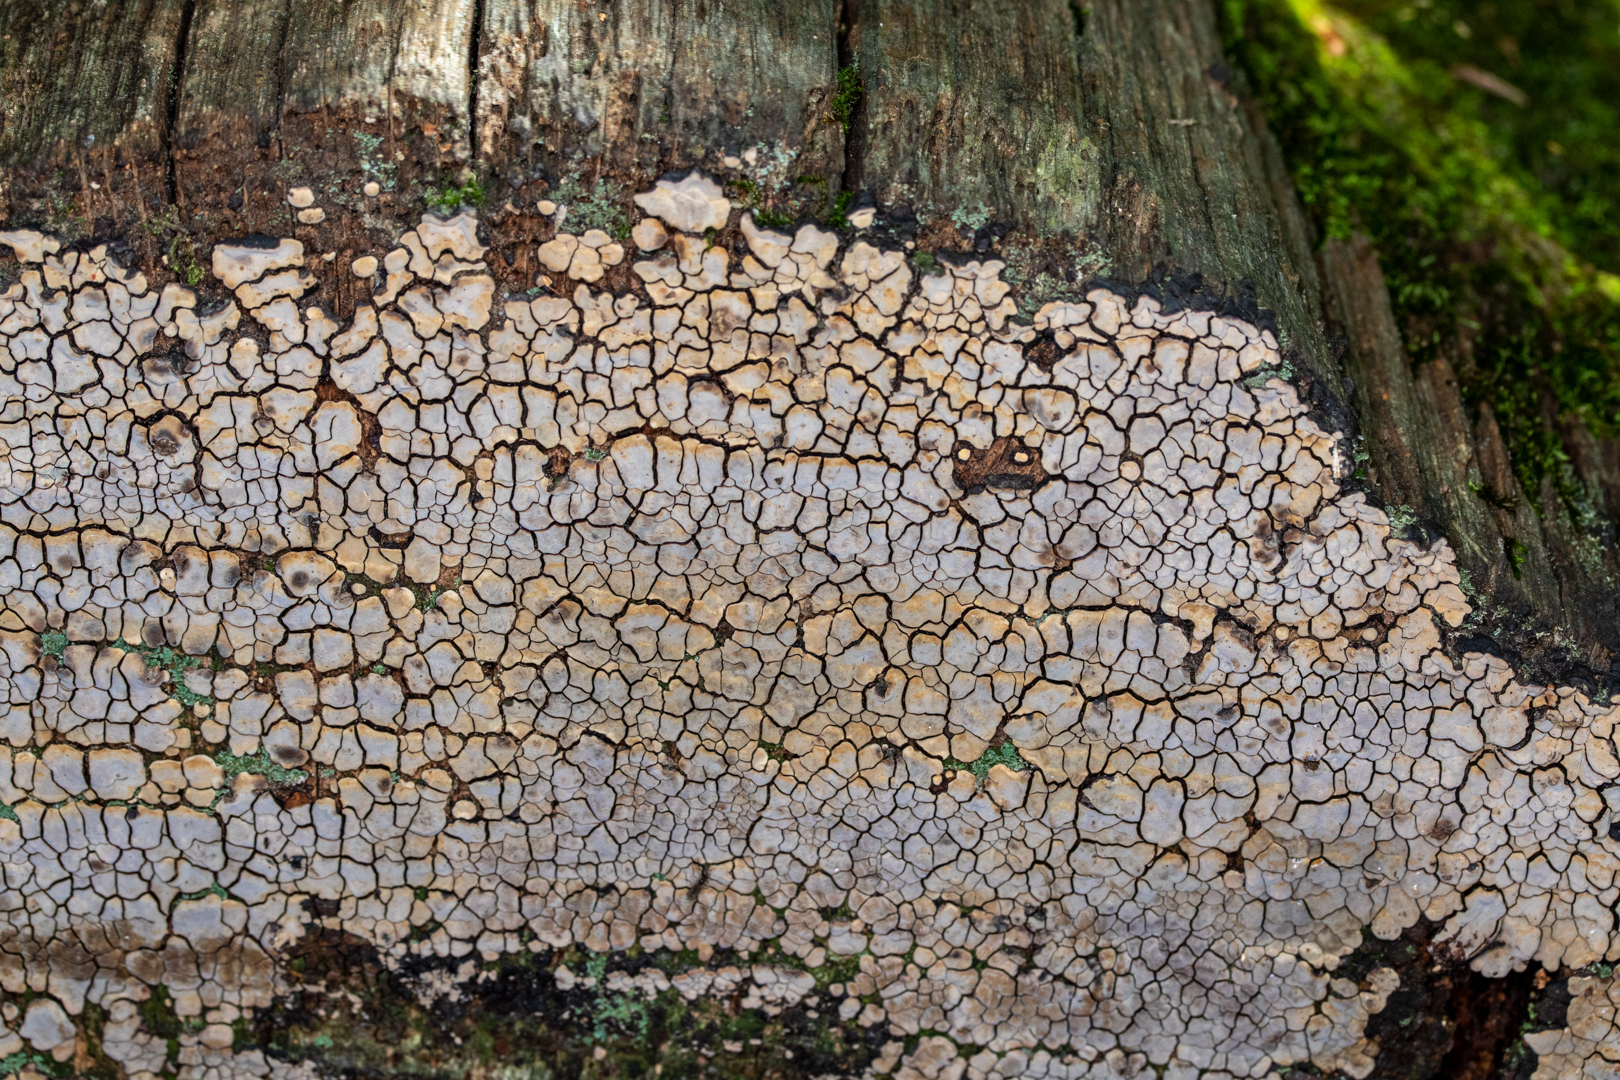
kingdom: Fungi
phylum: Basidiomycota
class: Agaricomycetes
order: Russulales
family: Stereaceae
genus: Xylobolus
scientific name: Xylobolus frustulatus
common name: Ceramic parchment
